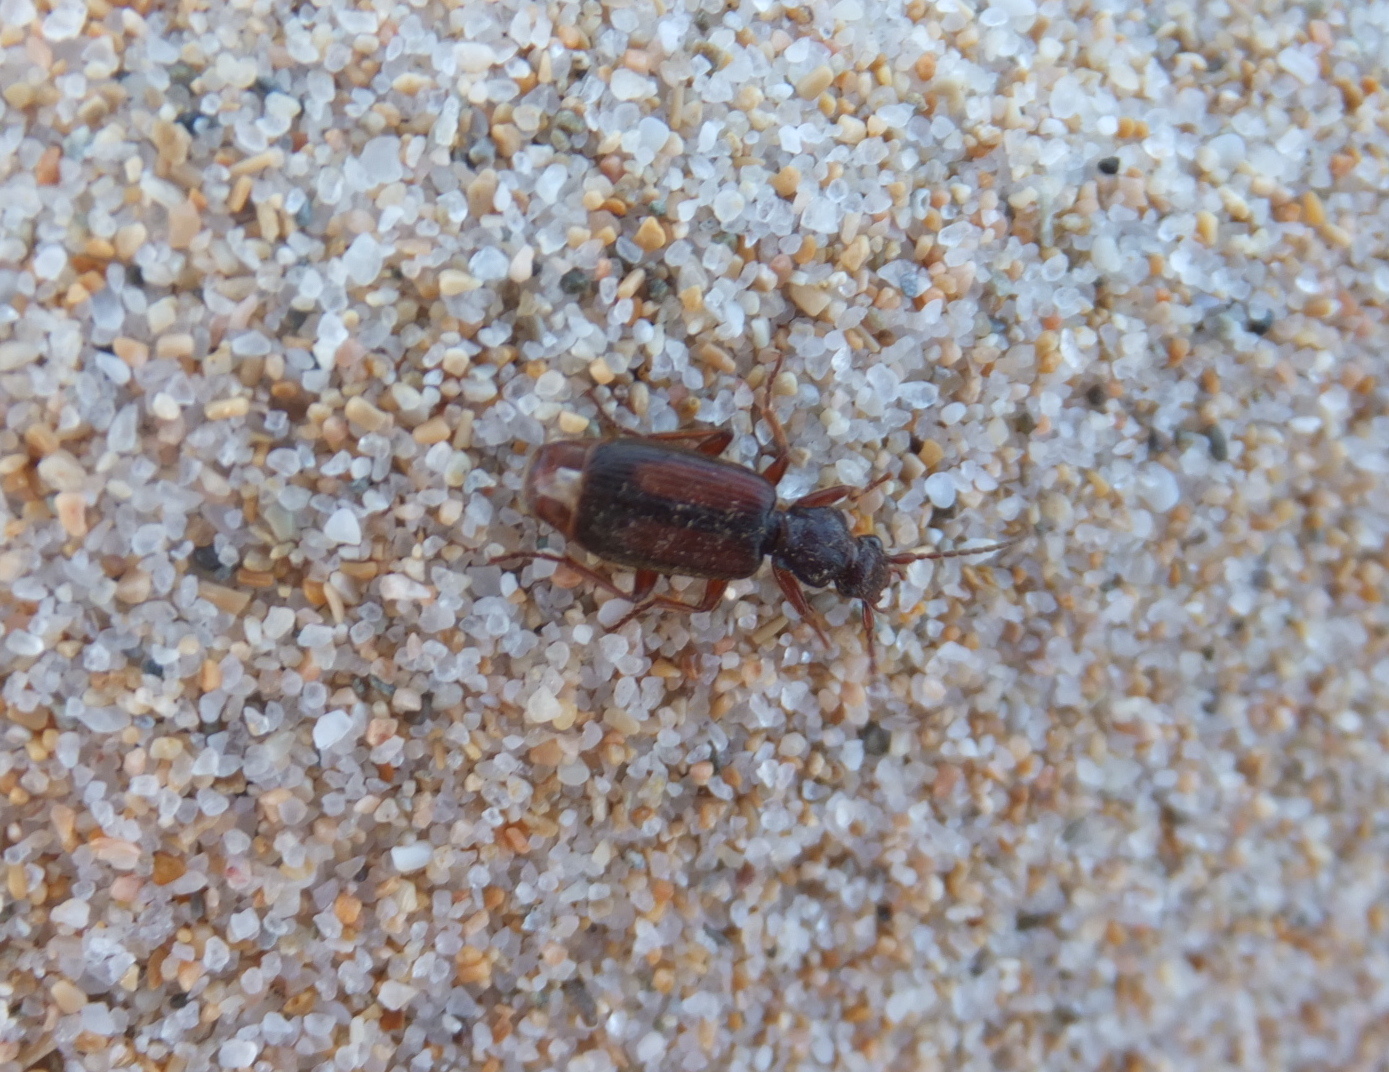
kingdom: Animalia
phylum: Arthropoda
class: Insecta
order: Coleoptera
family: Carabidae
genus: Polistichus
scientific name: Polistichus connexus
